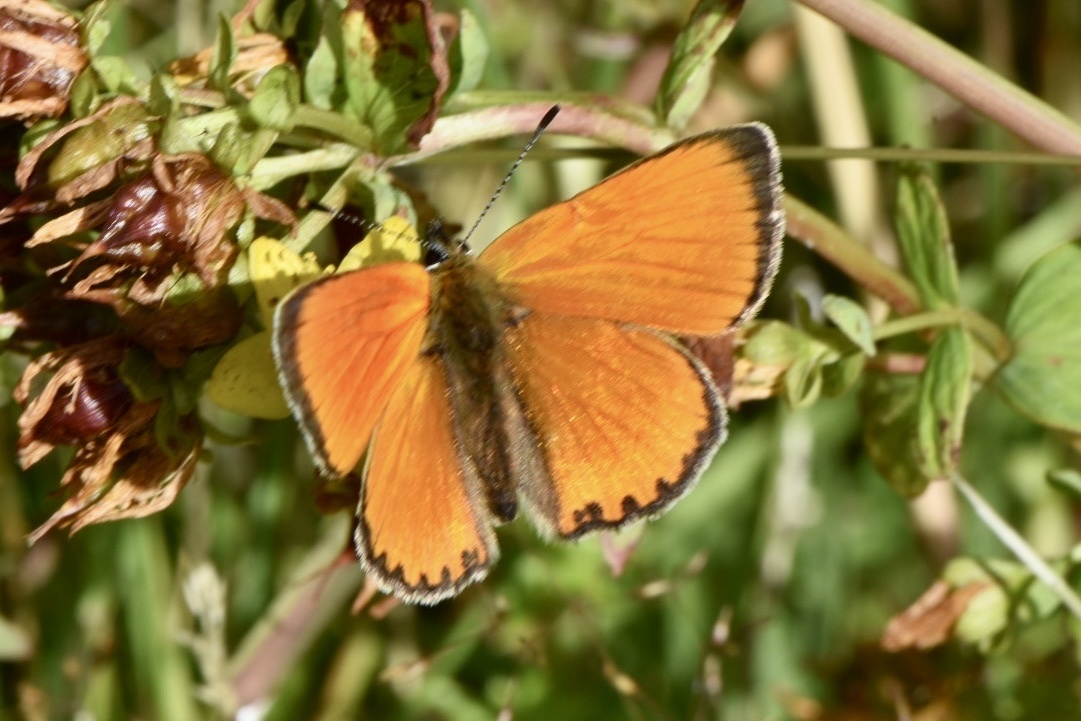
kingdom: Animalia
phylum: Arthropoda
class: Insecta
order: Lepidoptera
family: Lycaenidae
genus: Lycaena
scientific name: Lycaena virgaureae
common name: Scarce copper
